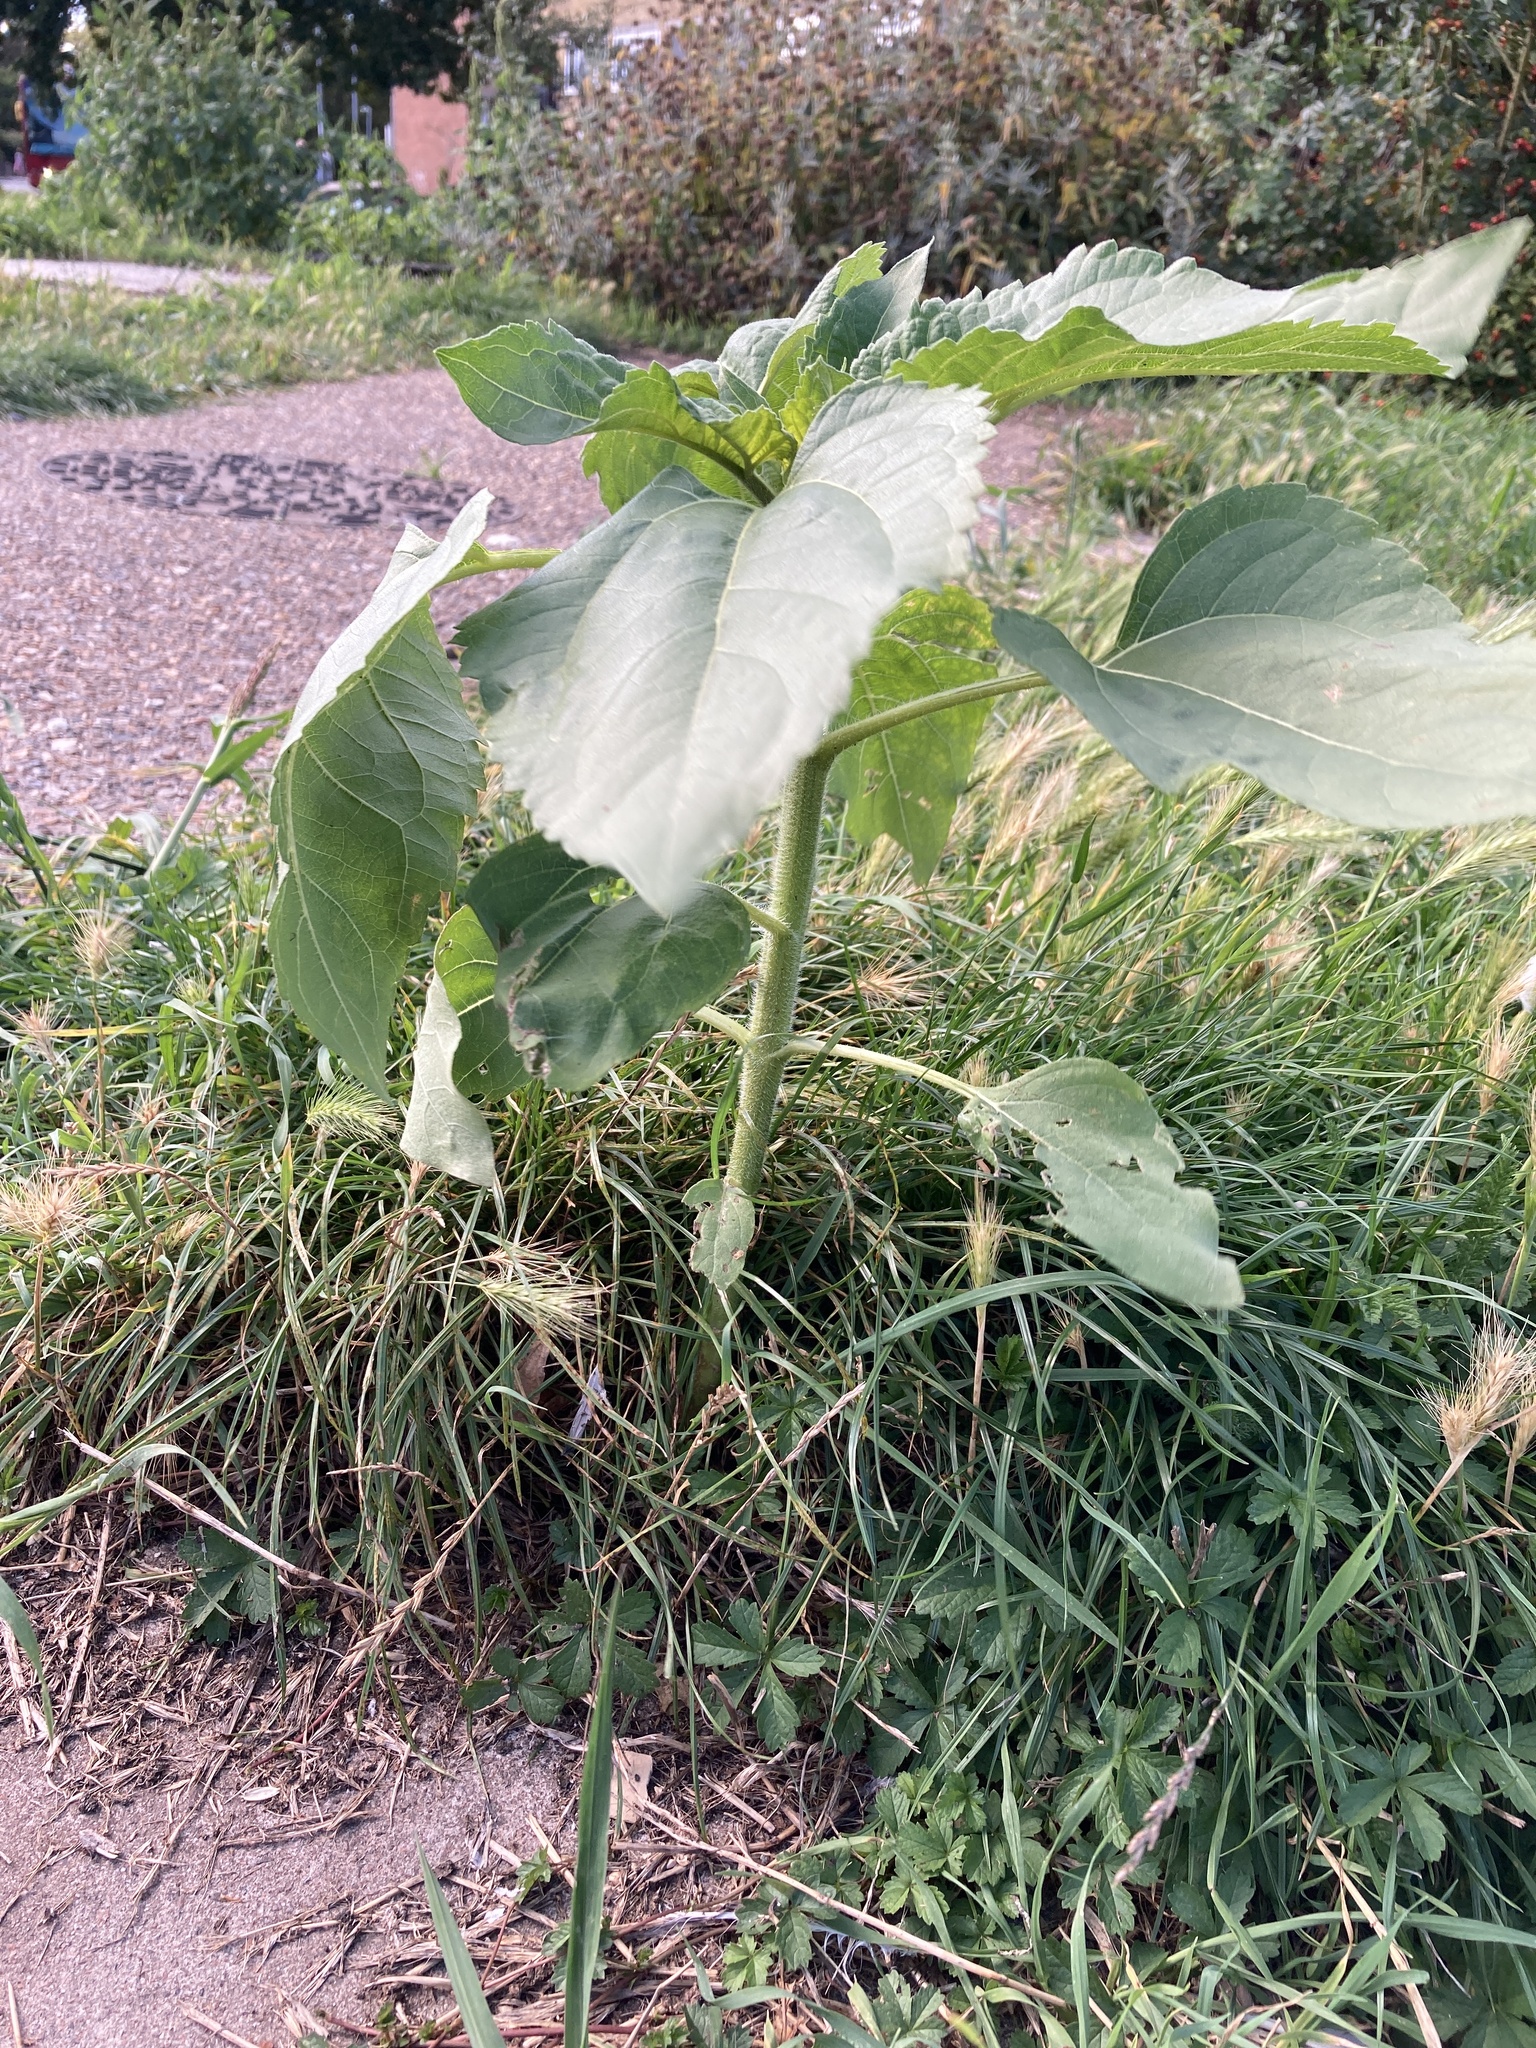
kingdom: Plantae
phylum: Tracheophyta
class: Magnoliopsida
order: Asterales
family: Asteraceae
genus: Helianthus
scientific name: Helianthus annuus
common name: Sunflower
